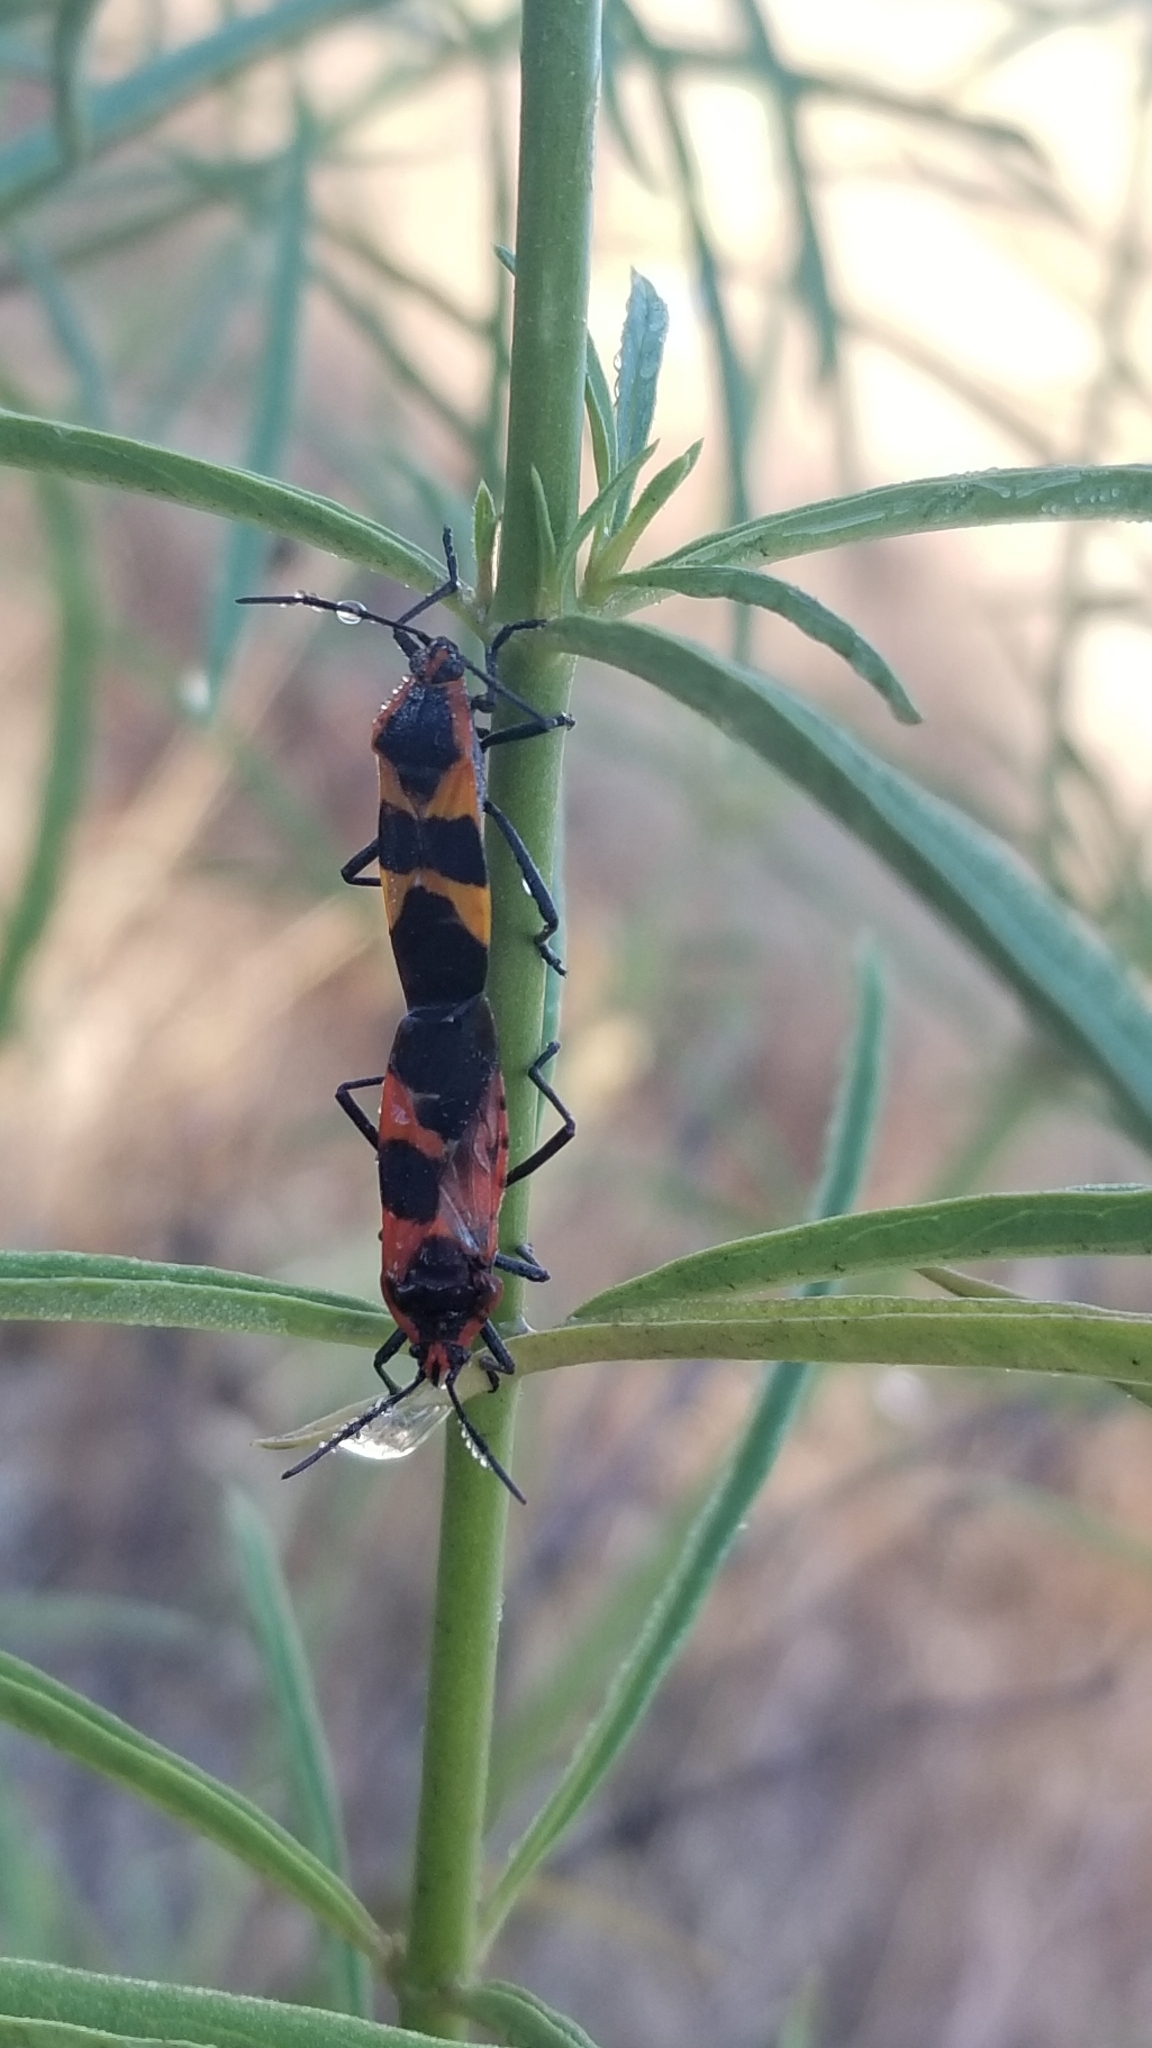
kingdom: Animalia
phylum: Arthropoda
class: Insecta
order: Hemiptera
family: Lygaeidae
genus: Oncopeltus
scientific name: Oncopeltus fasciatus
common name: Large milkweed bug
